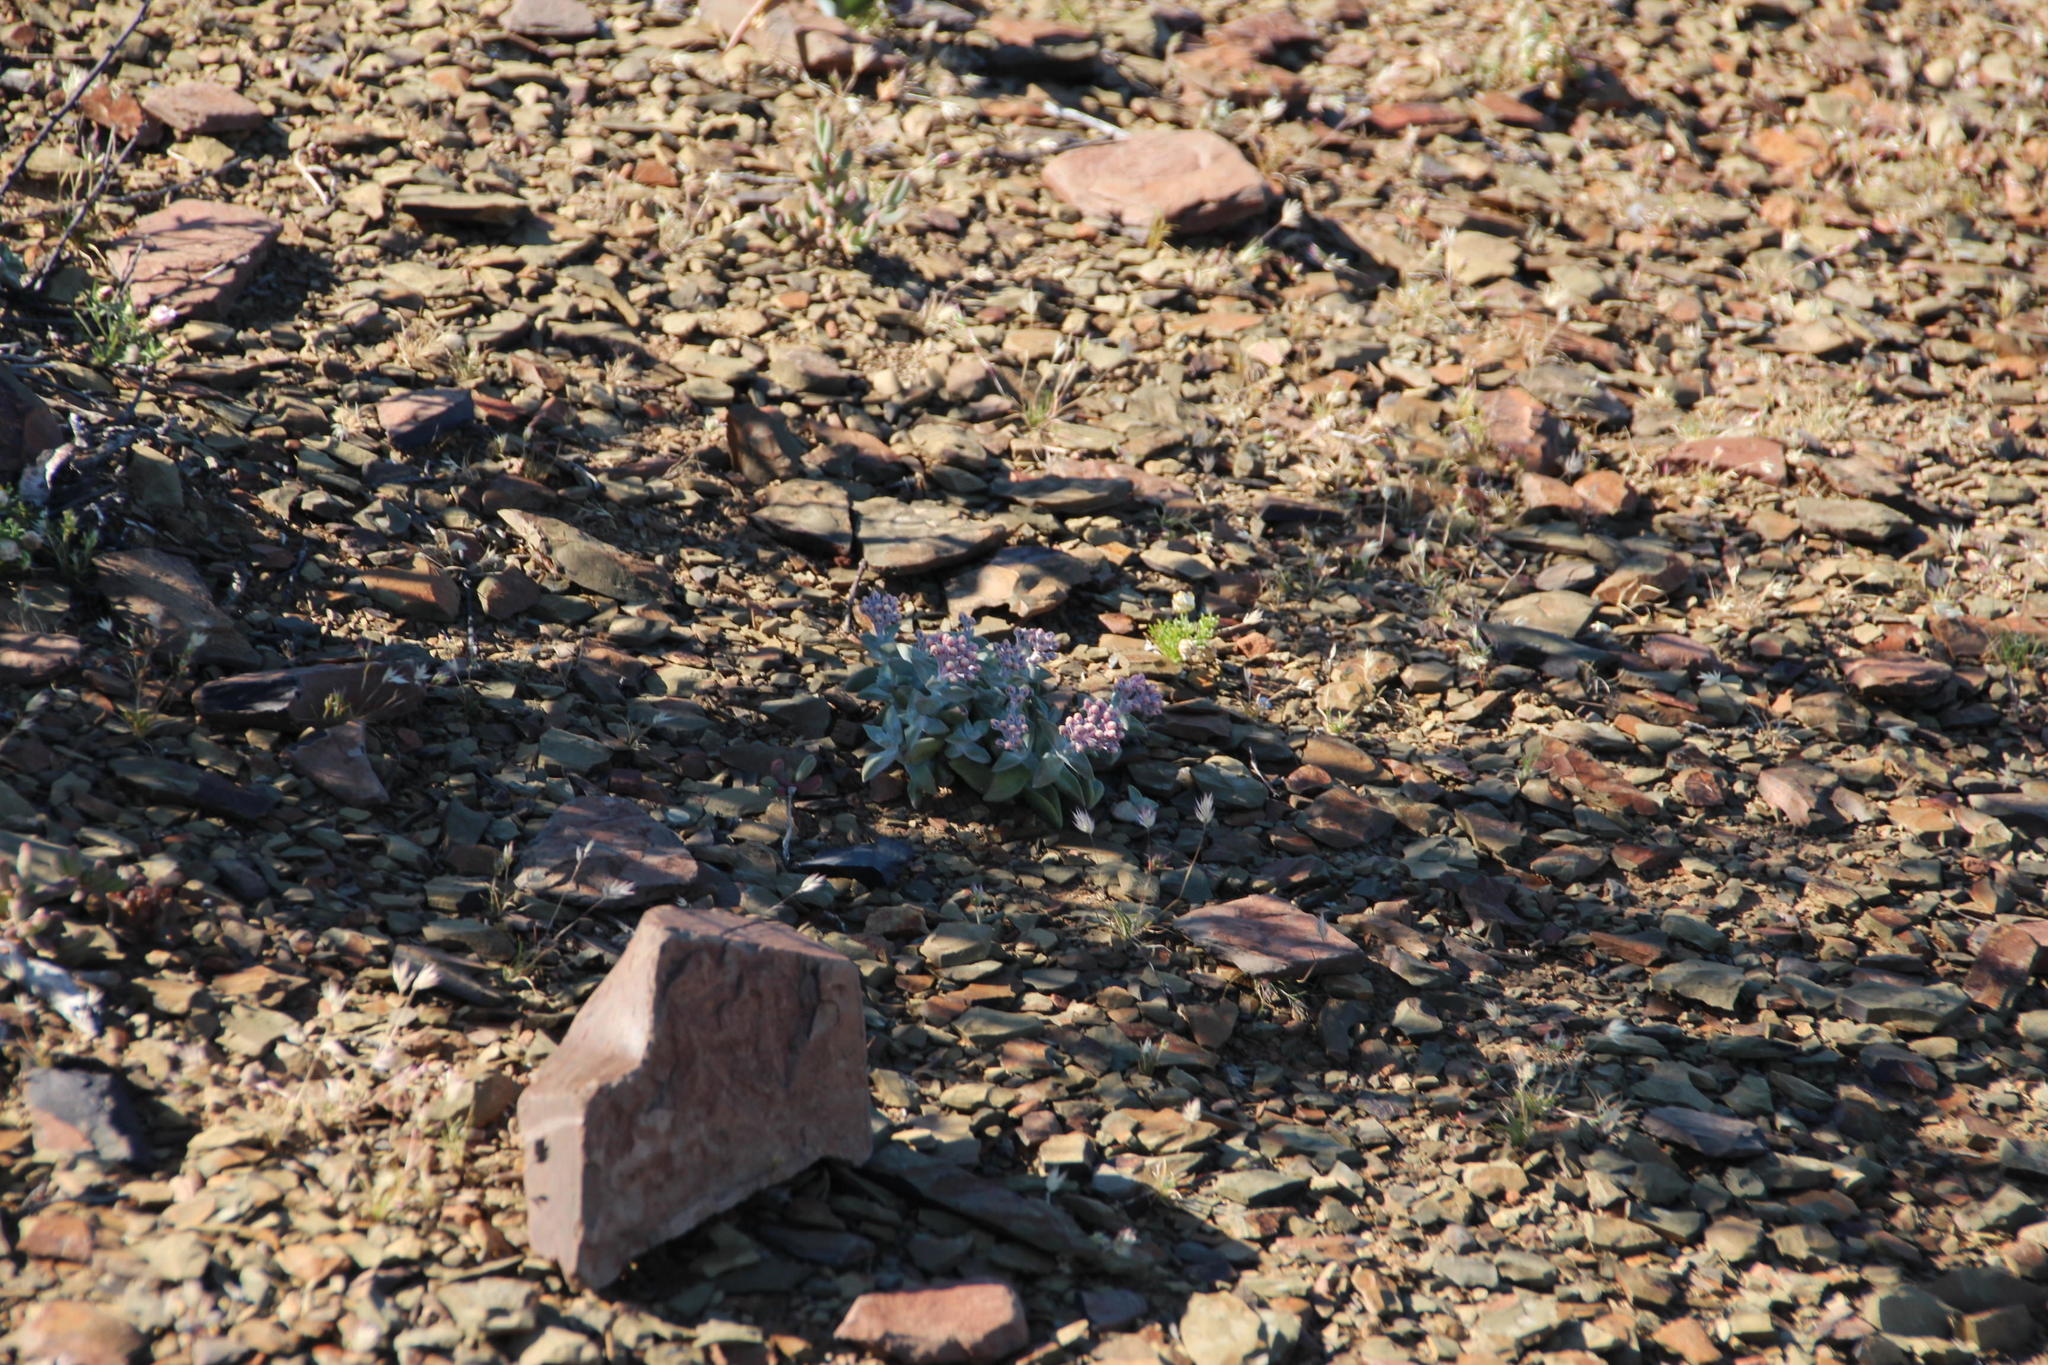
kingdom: Plantae
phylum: Tracheophyta
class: Magnoliopsida
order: Saxifragales
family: Crassulaceae
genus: Crassula
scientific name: Crassula deltoidea
